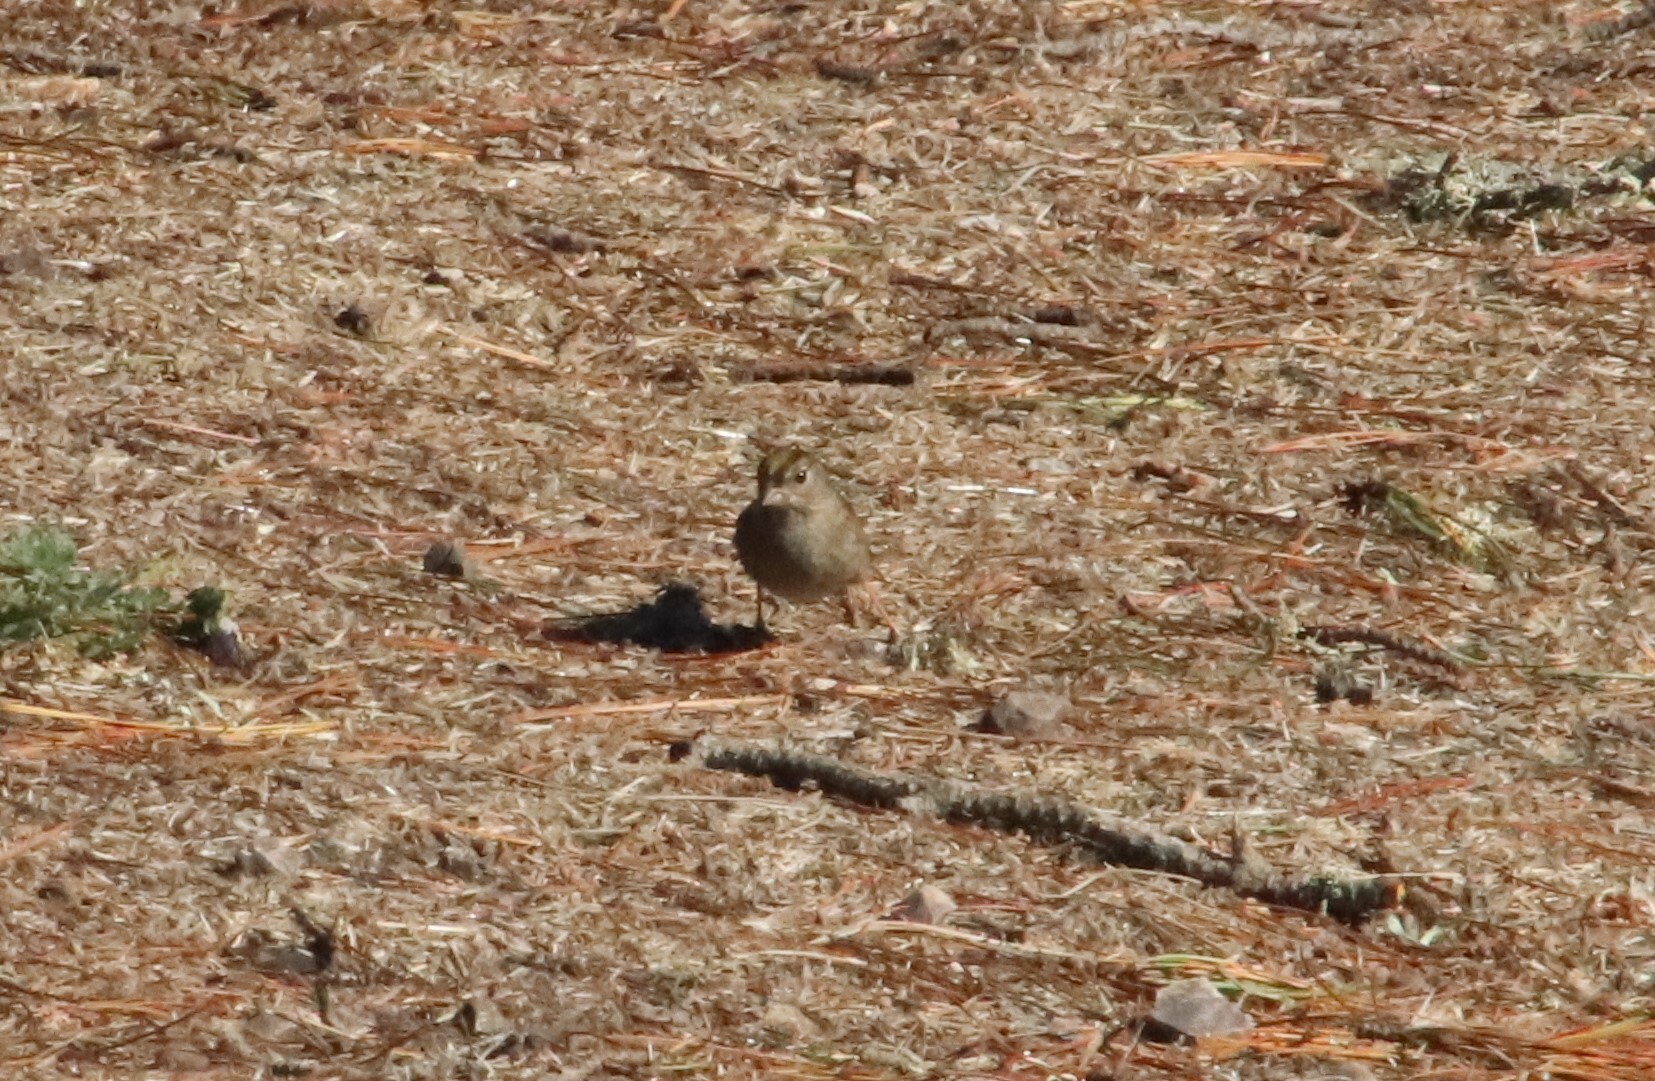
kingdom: Animalia
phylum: Chordata
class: Aves
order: Passeriformes
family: Passerellidae
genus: Zonotrichia
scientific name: Zonotrichia atricapilla
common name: Golden-crowned sparrow
